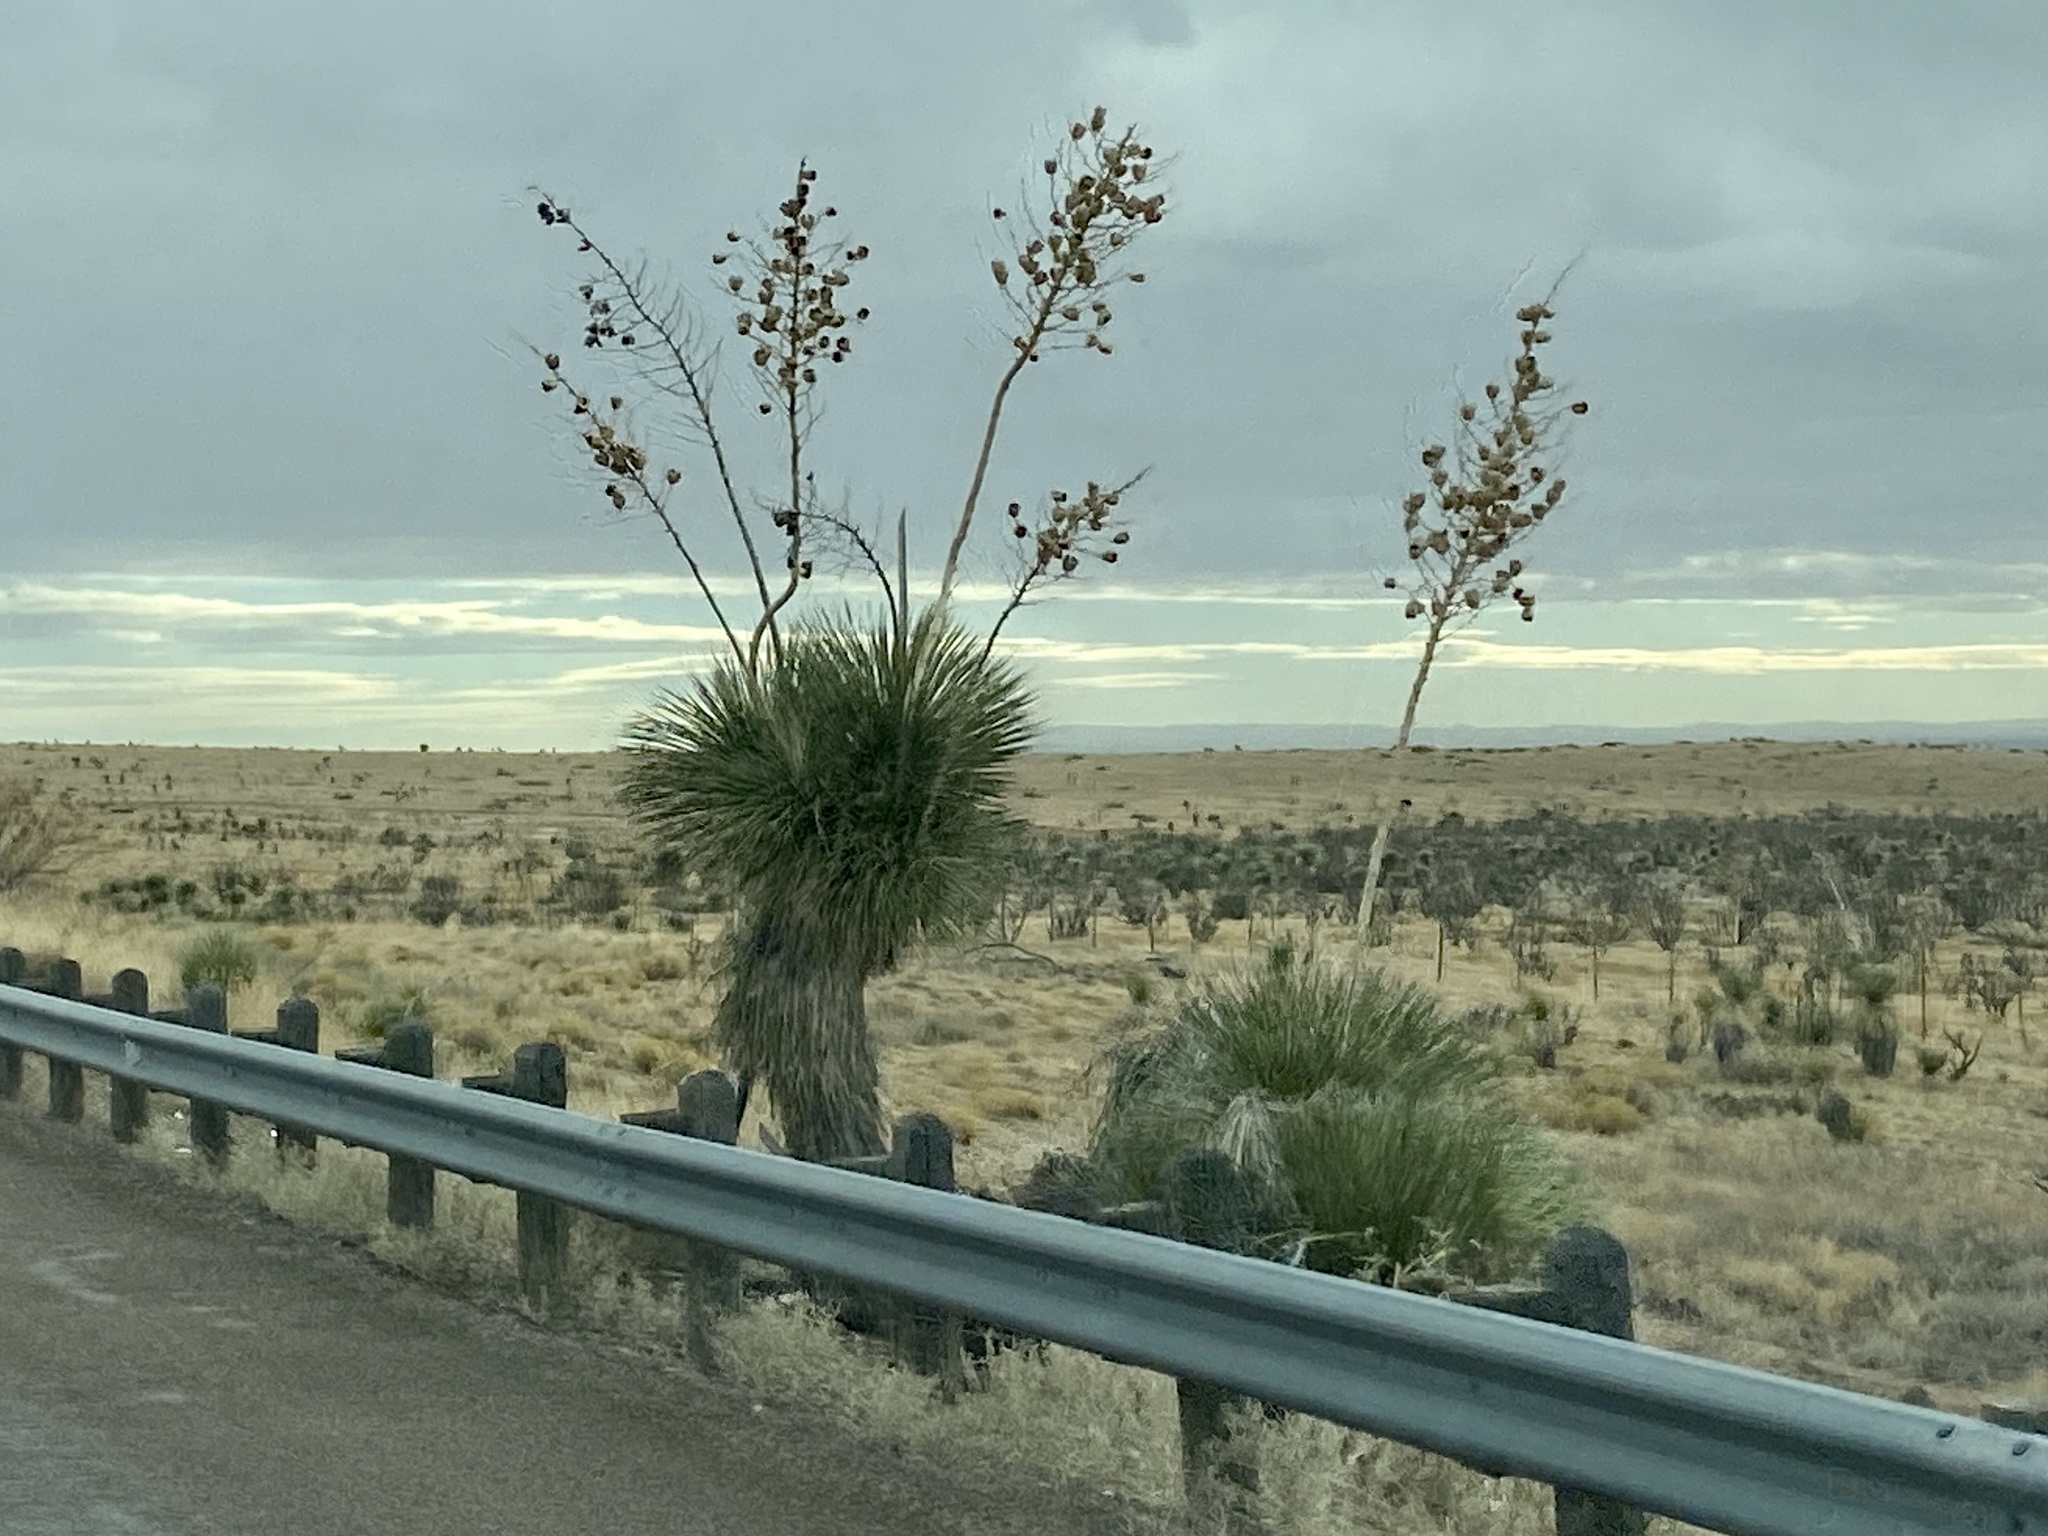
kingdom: Plantae
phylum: Tracheophyta
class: Liliopsida
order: Asparagales
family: Asparagaceae
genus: Yucca
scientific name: Yucca elata
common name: Palmella
